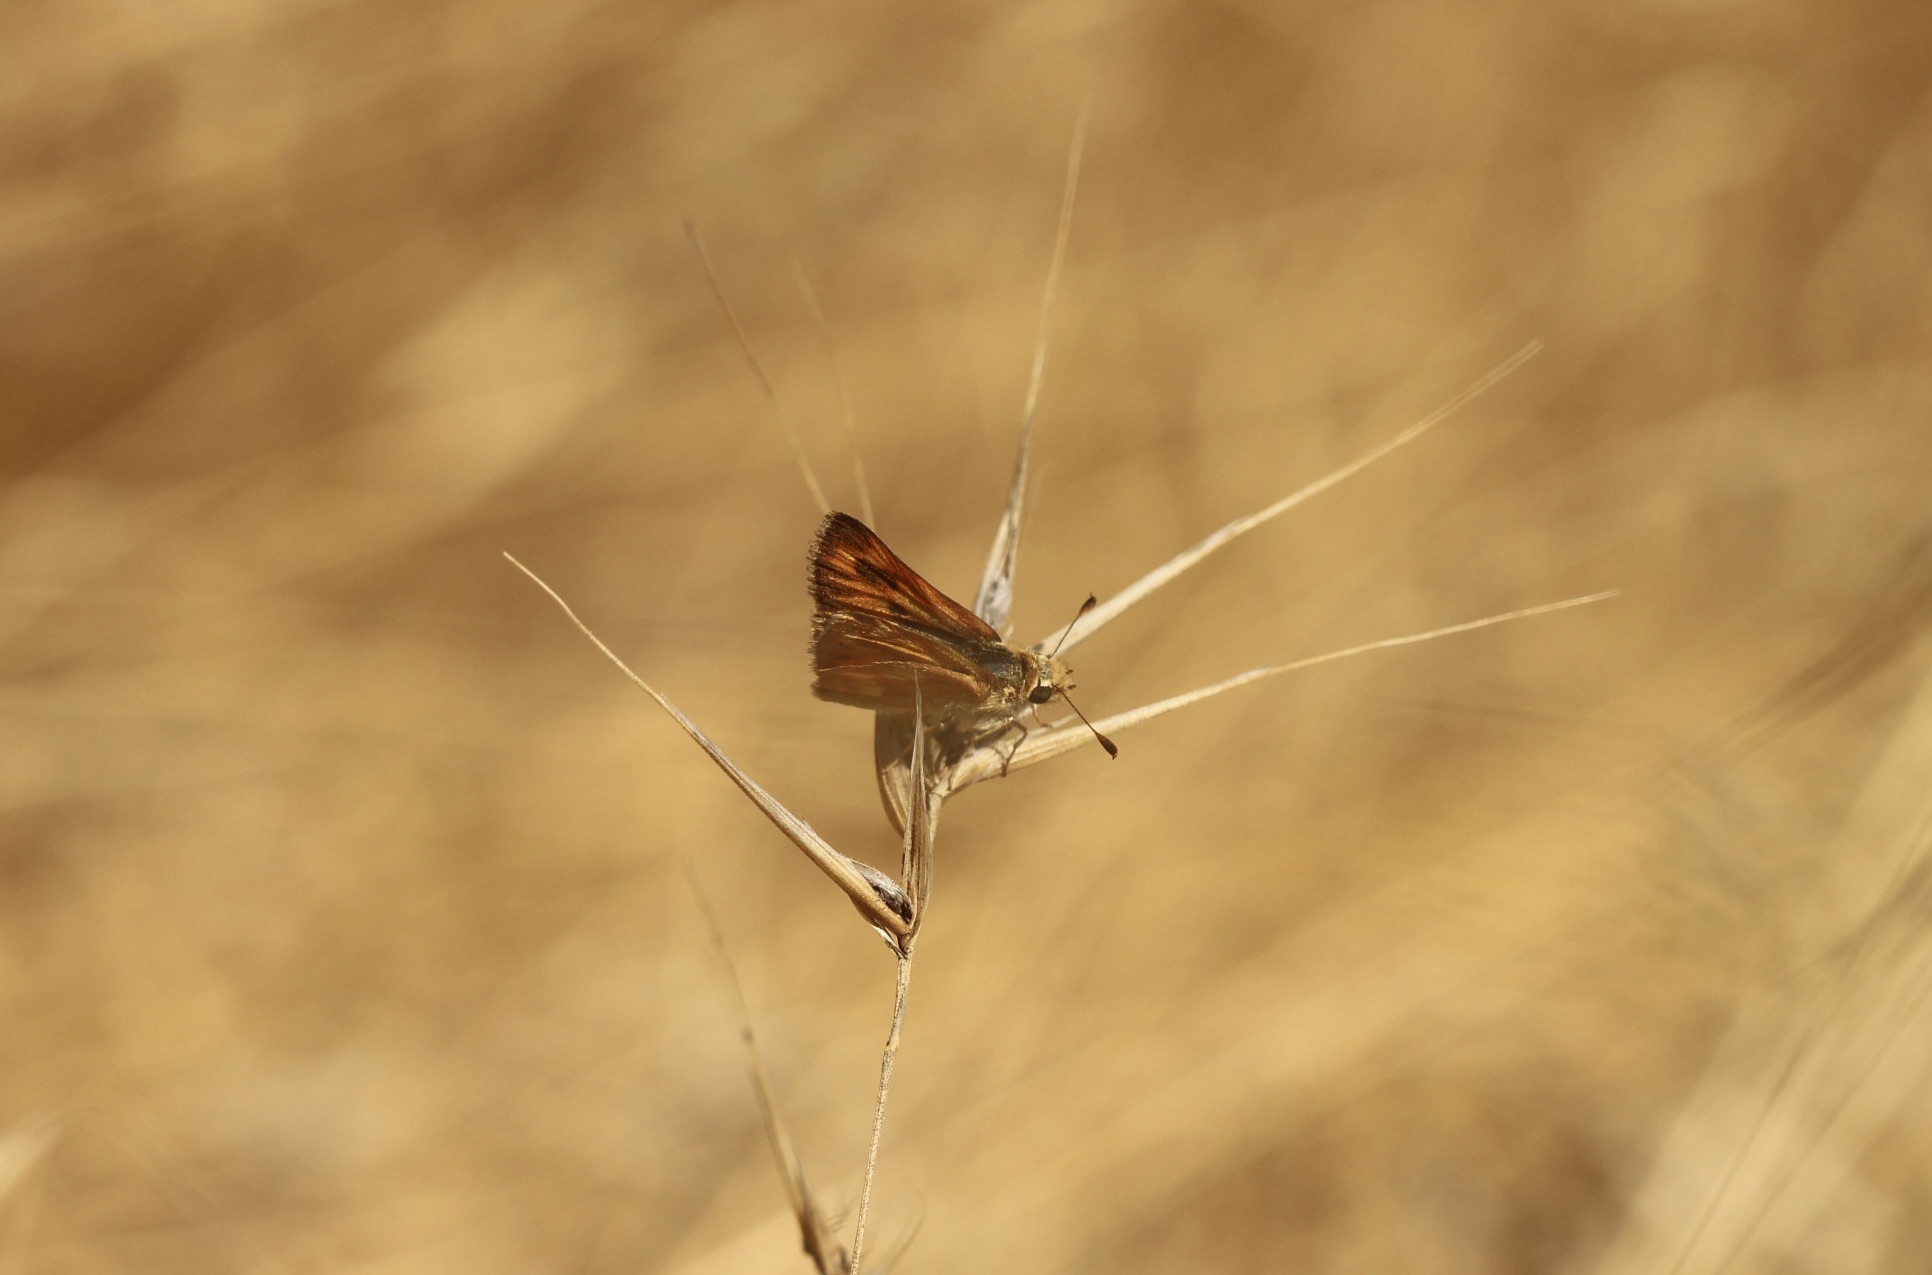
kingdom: Animalia
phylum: Arthropoda
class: Insecta
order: Lepidoptera
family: Hesperiidae
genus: Ochlodes
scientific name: Ochlodes sylvanoides
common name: Woodland skipper
